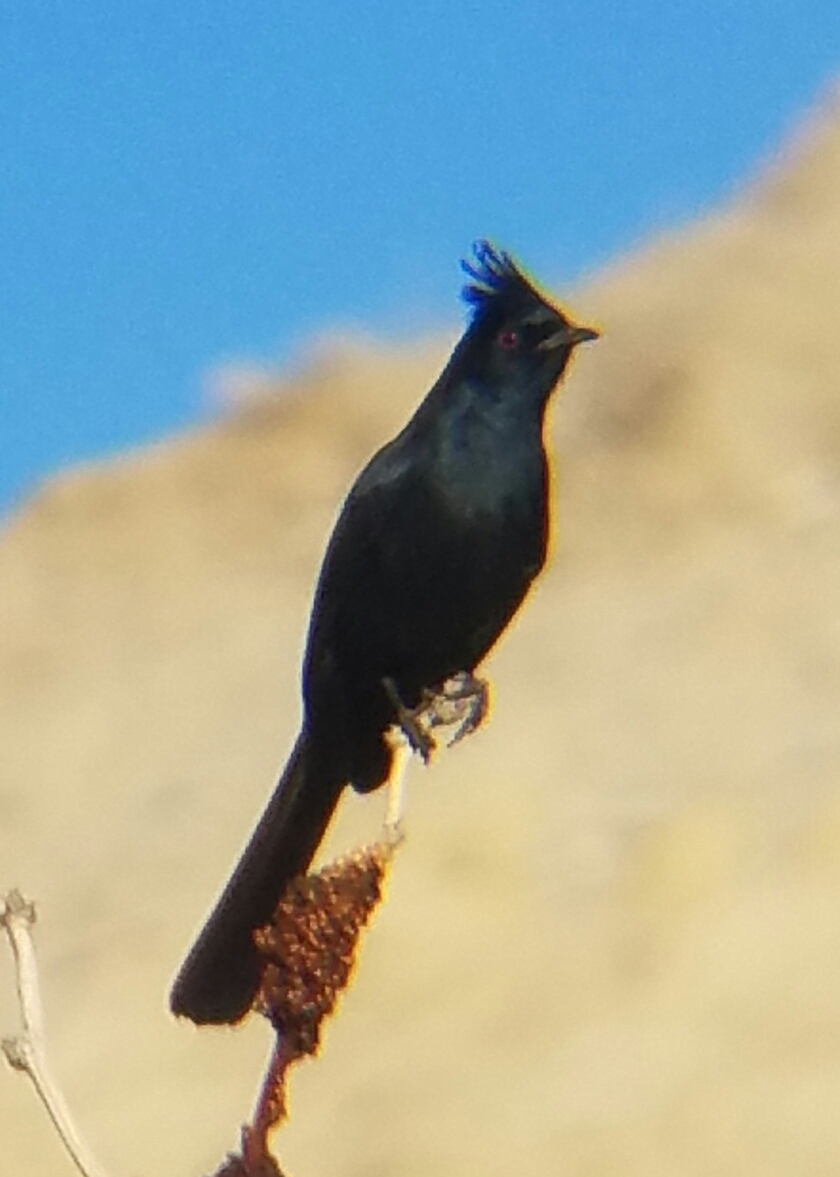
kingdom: Animalia
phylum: Chordata
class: Aves
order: Passeriformes
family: Ptilogonatidae
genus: Phainopepla
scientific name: Phainopepla nitens
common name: Phainopepla
